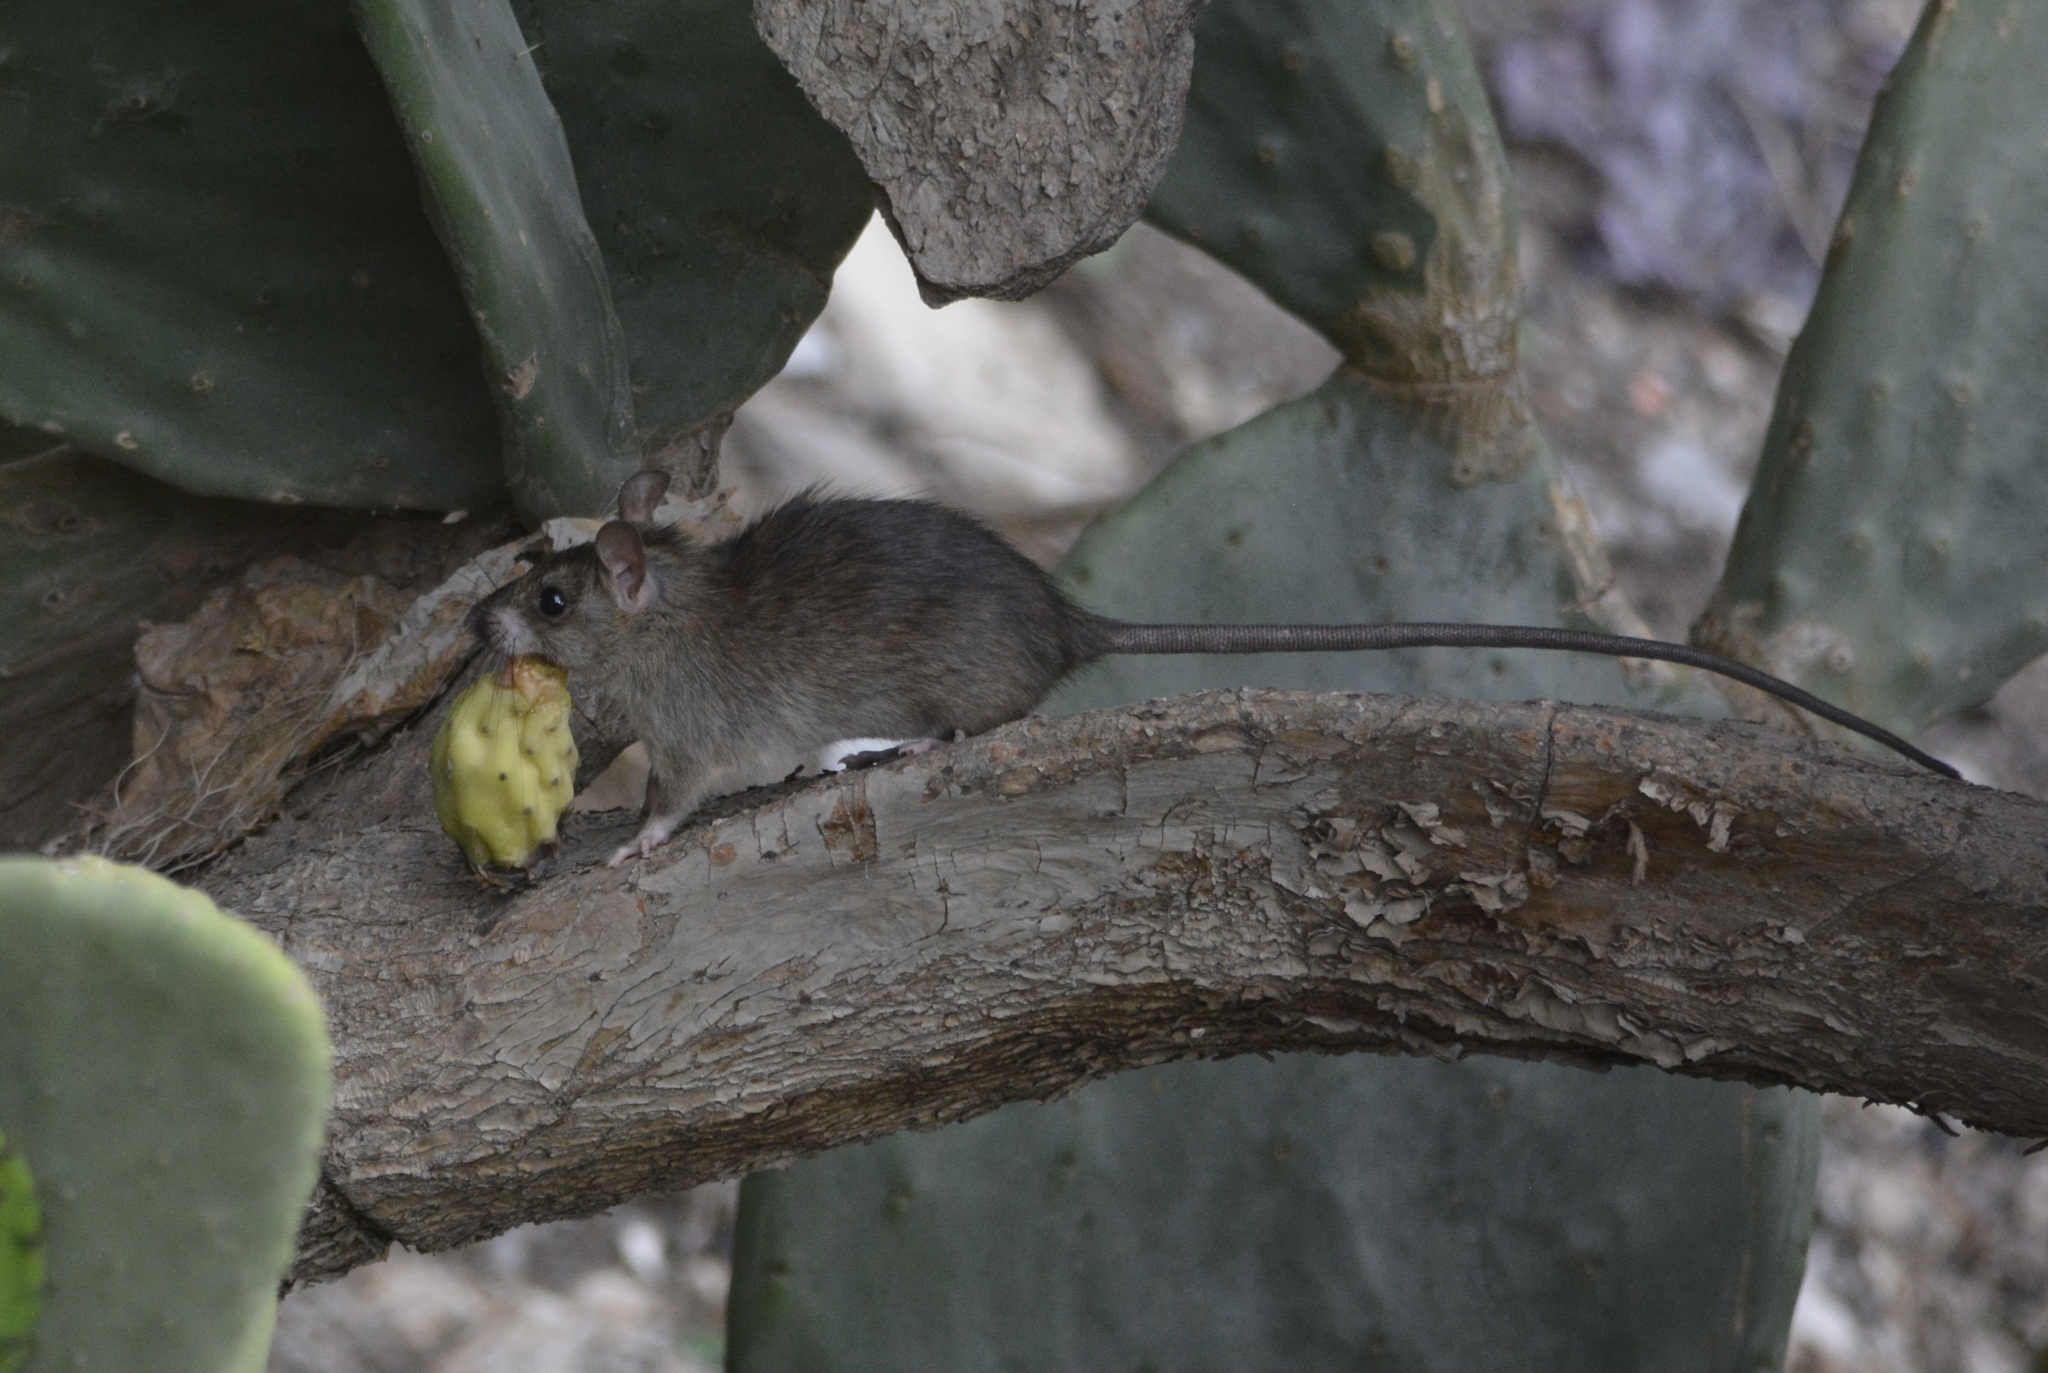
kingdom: Animalia
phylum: Chordata
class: Mammalia
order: Rodentia
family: Muridae
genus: Rattus
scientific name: Rattus rattus
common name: Black rat
